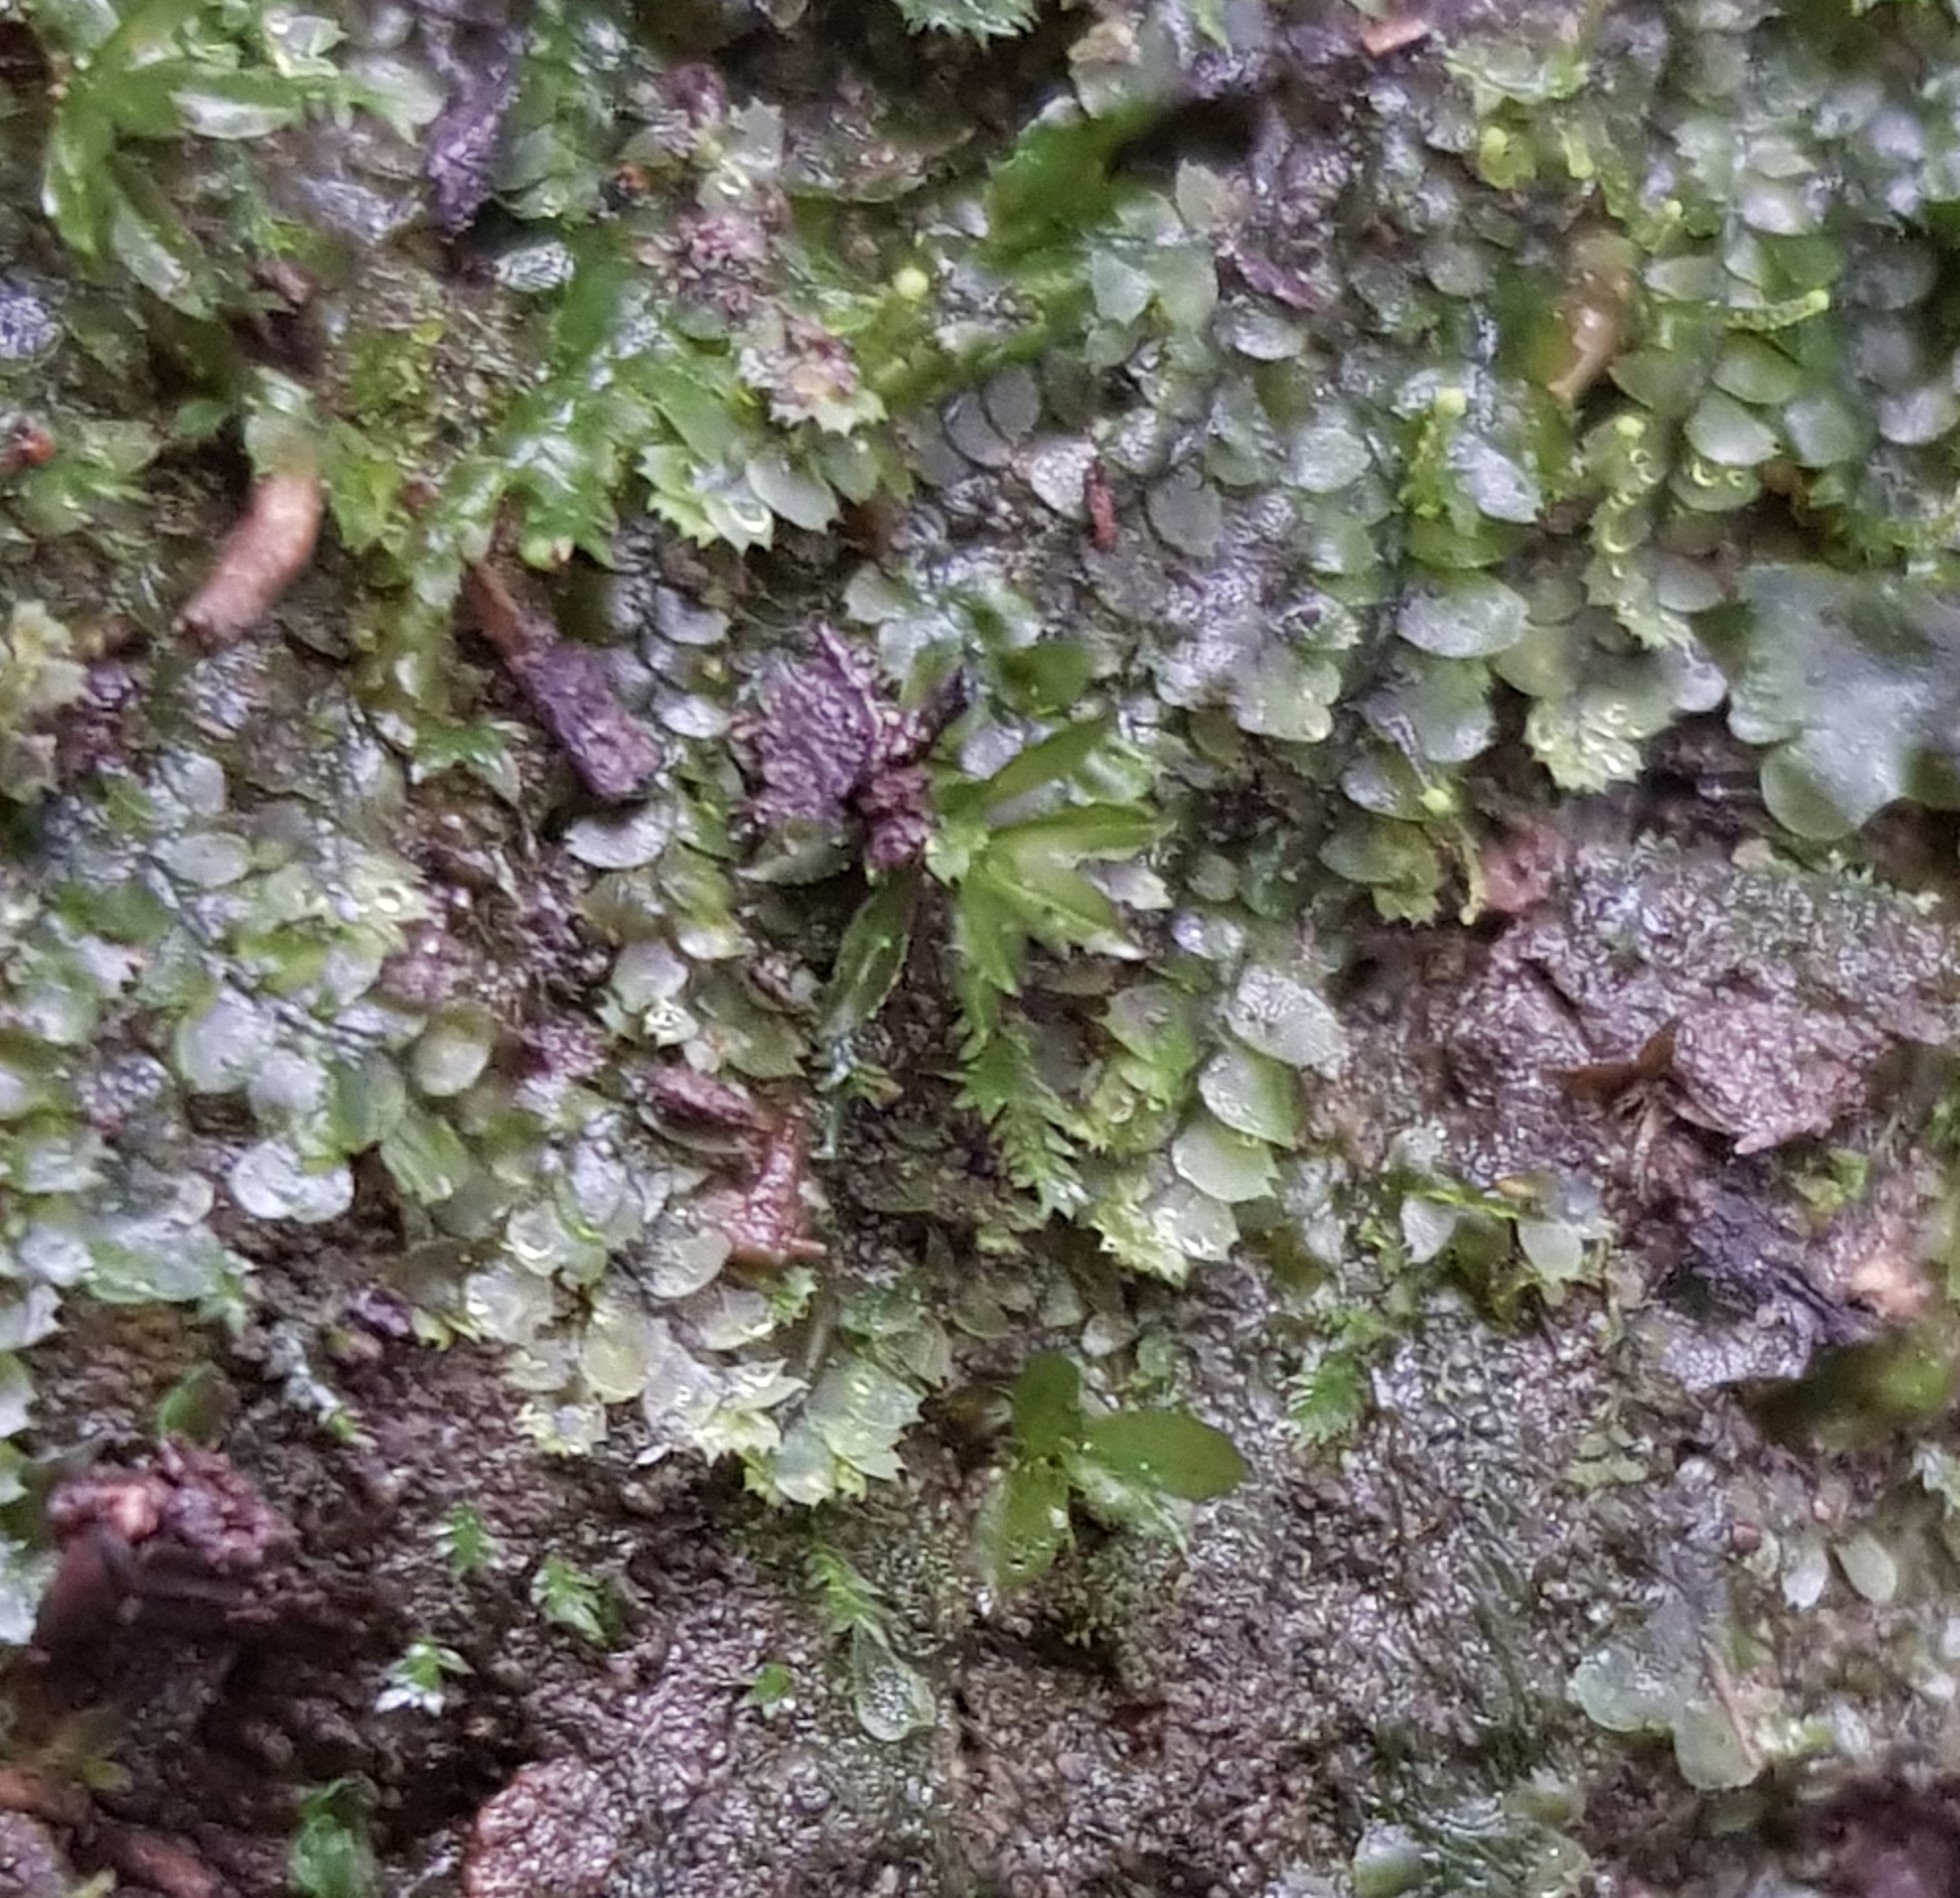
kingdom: Plantae
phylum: Marchantiophyta
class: Jungermanniopsida
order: Jungermanniales
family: Calypogeiaceae
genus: Asperifolia
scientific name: Asperifolia arguta
